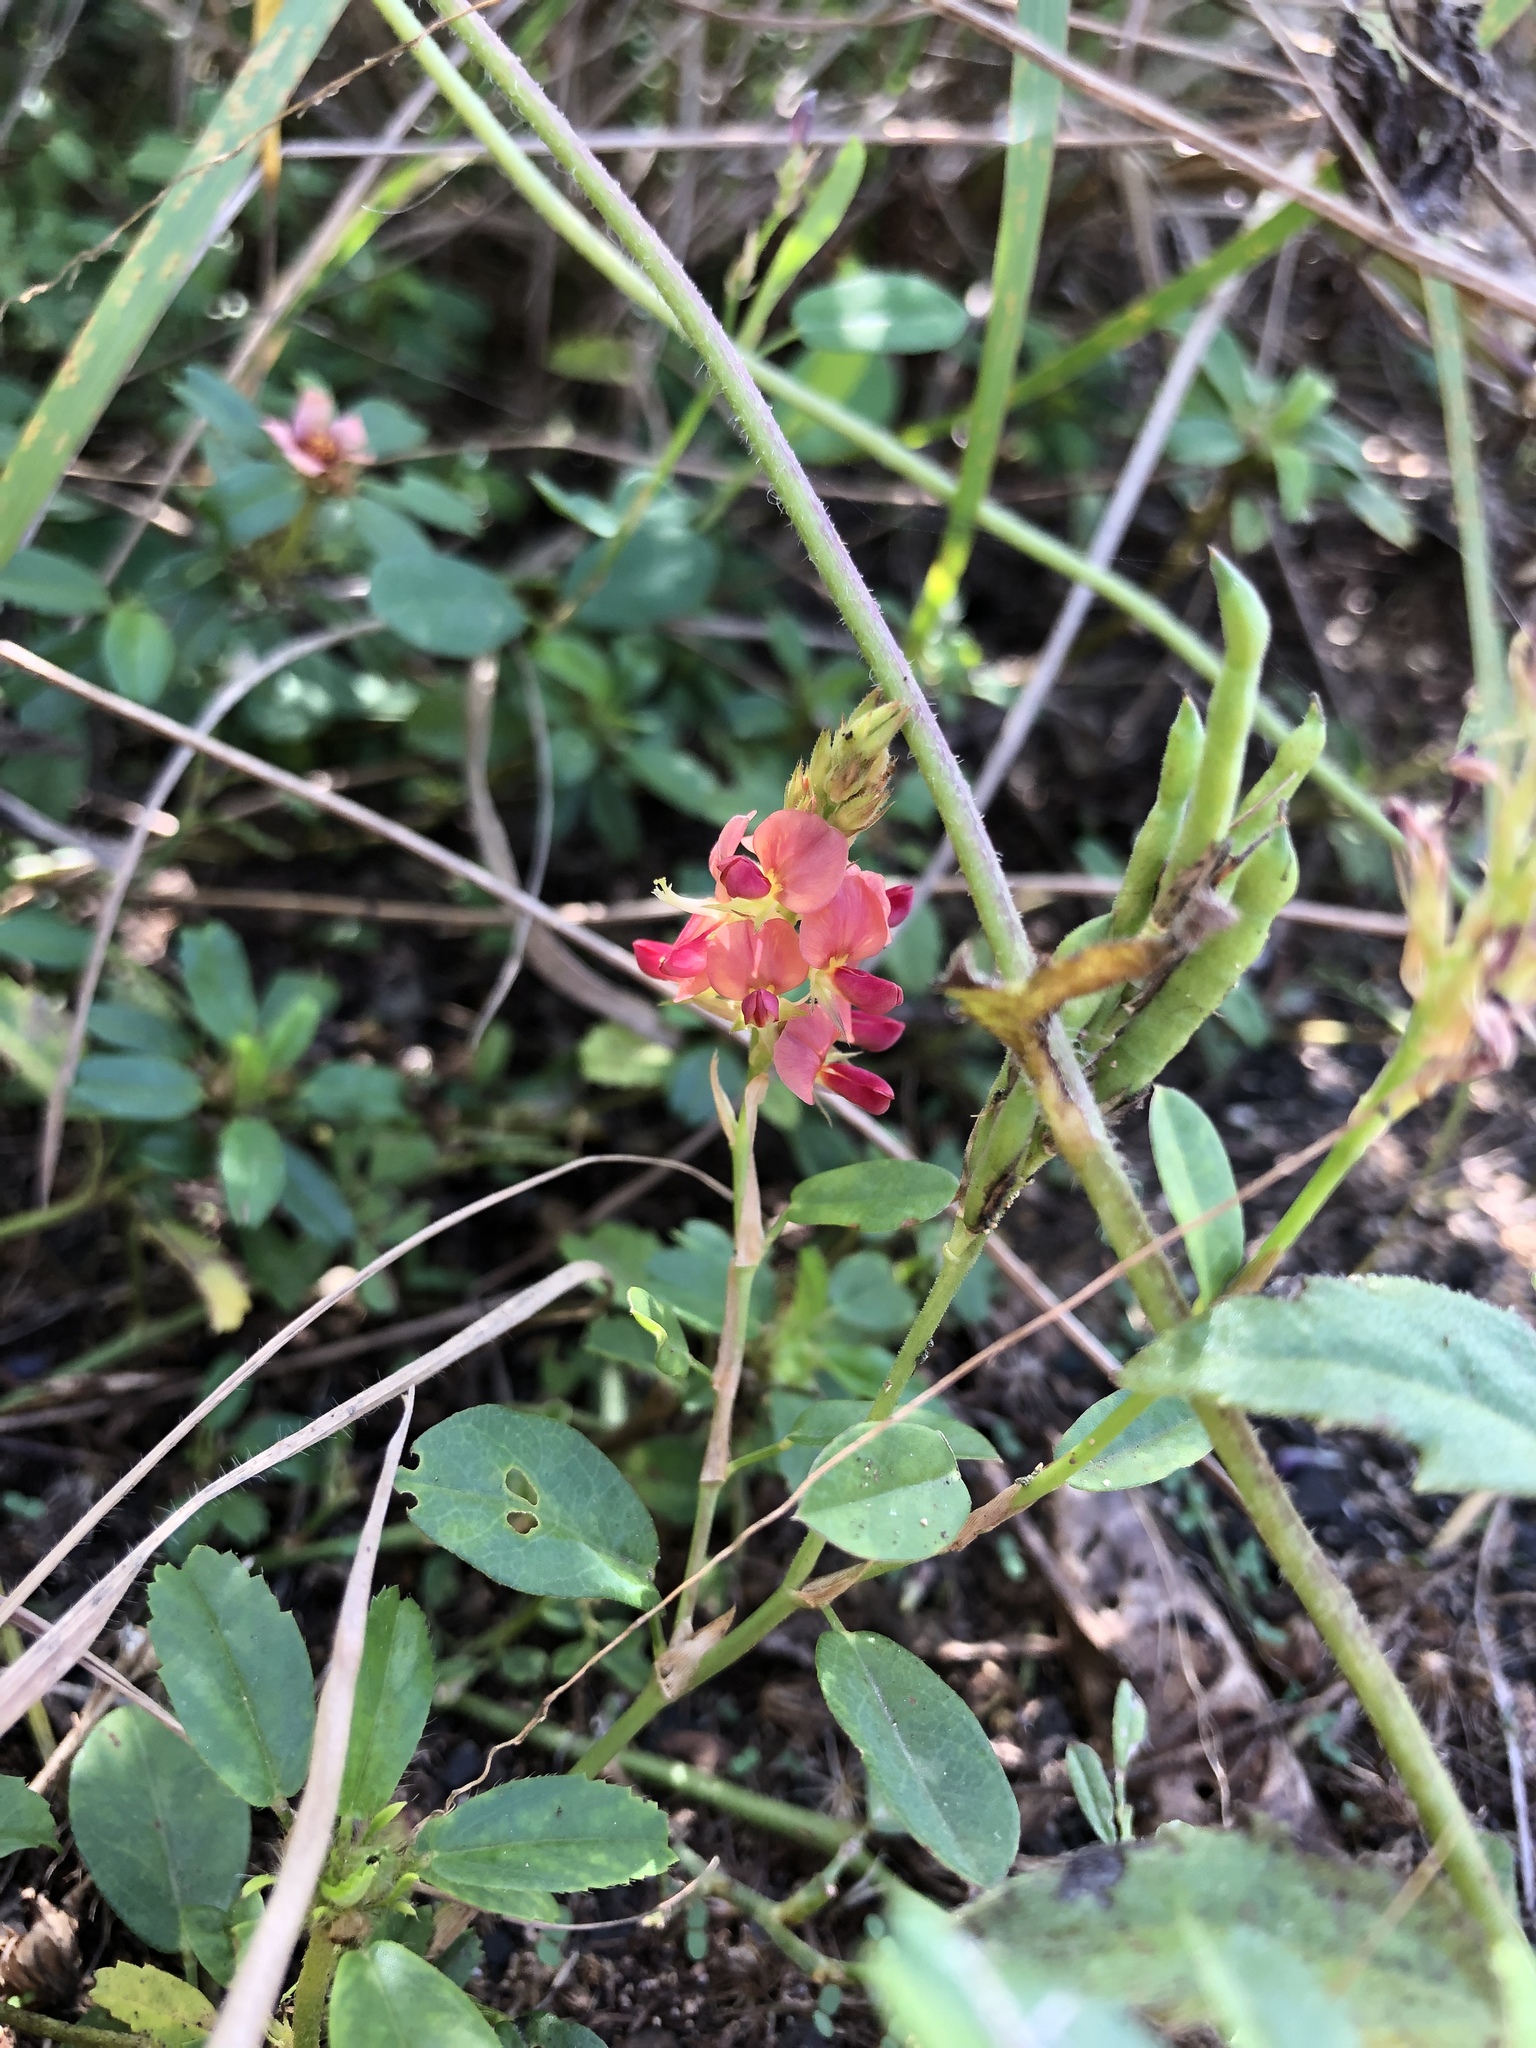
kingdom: Plantae
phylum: Tracheophyta
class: Magnoliopsida
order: Fabales
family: Fabaceae
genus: Alysicarpus
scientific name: Alysicarpus vaginalis
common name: White moneywort
